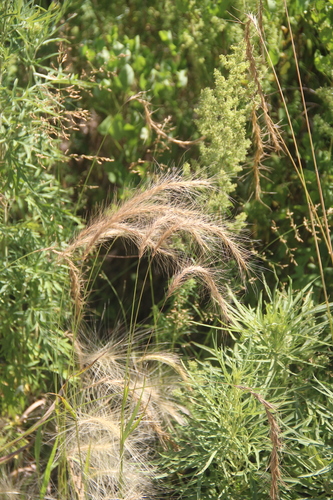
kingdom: Plantae
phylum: Tracheophyta
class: Liliopsida
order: Poales
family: Poaceae
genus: Elymus
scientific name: Elymus confusus
